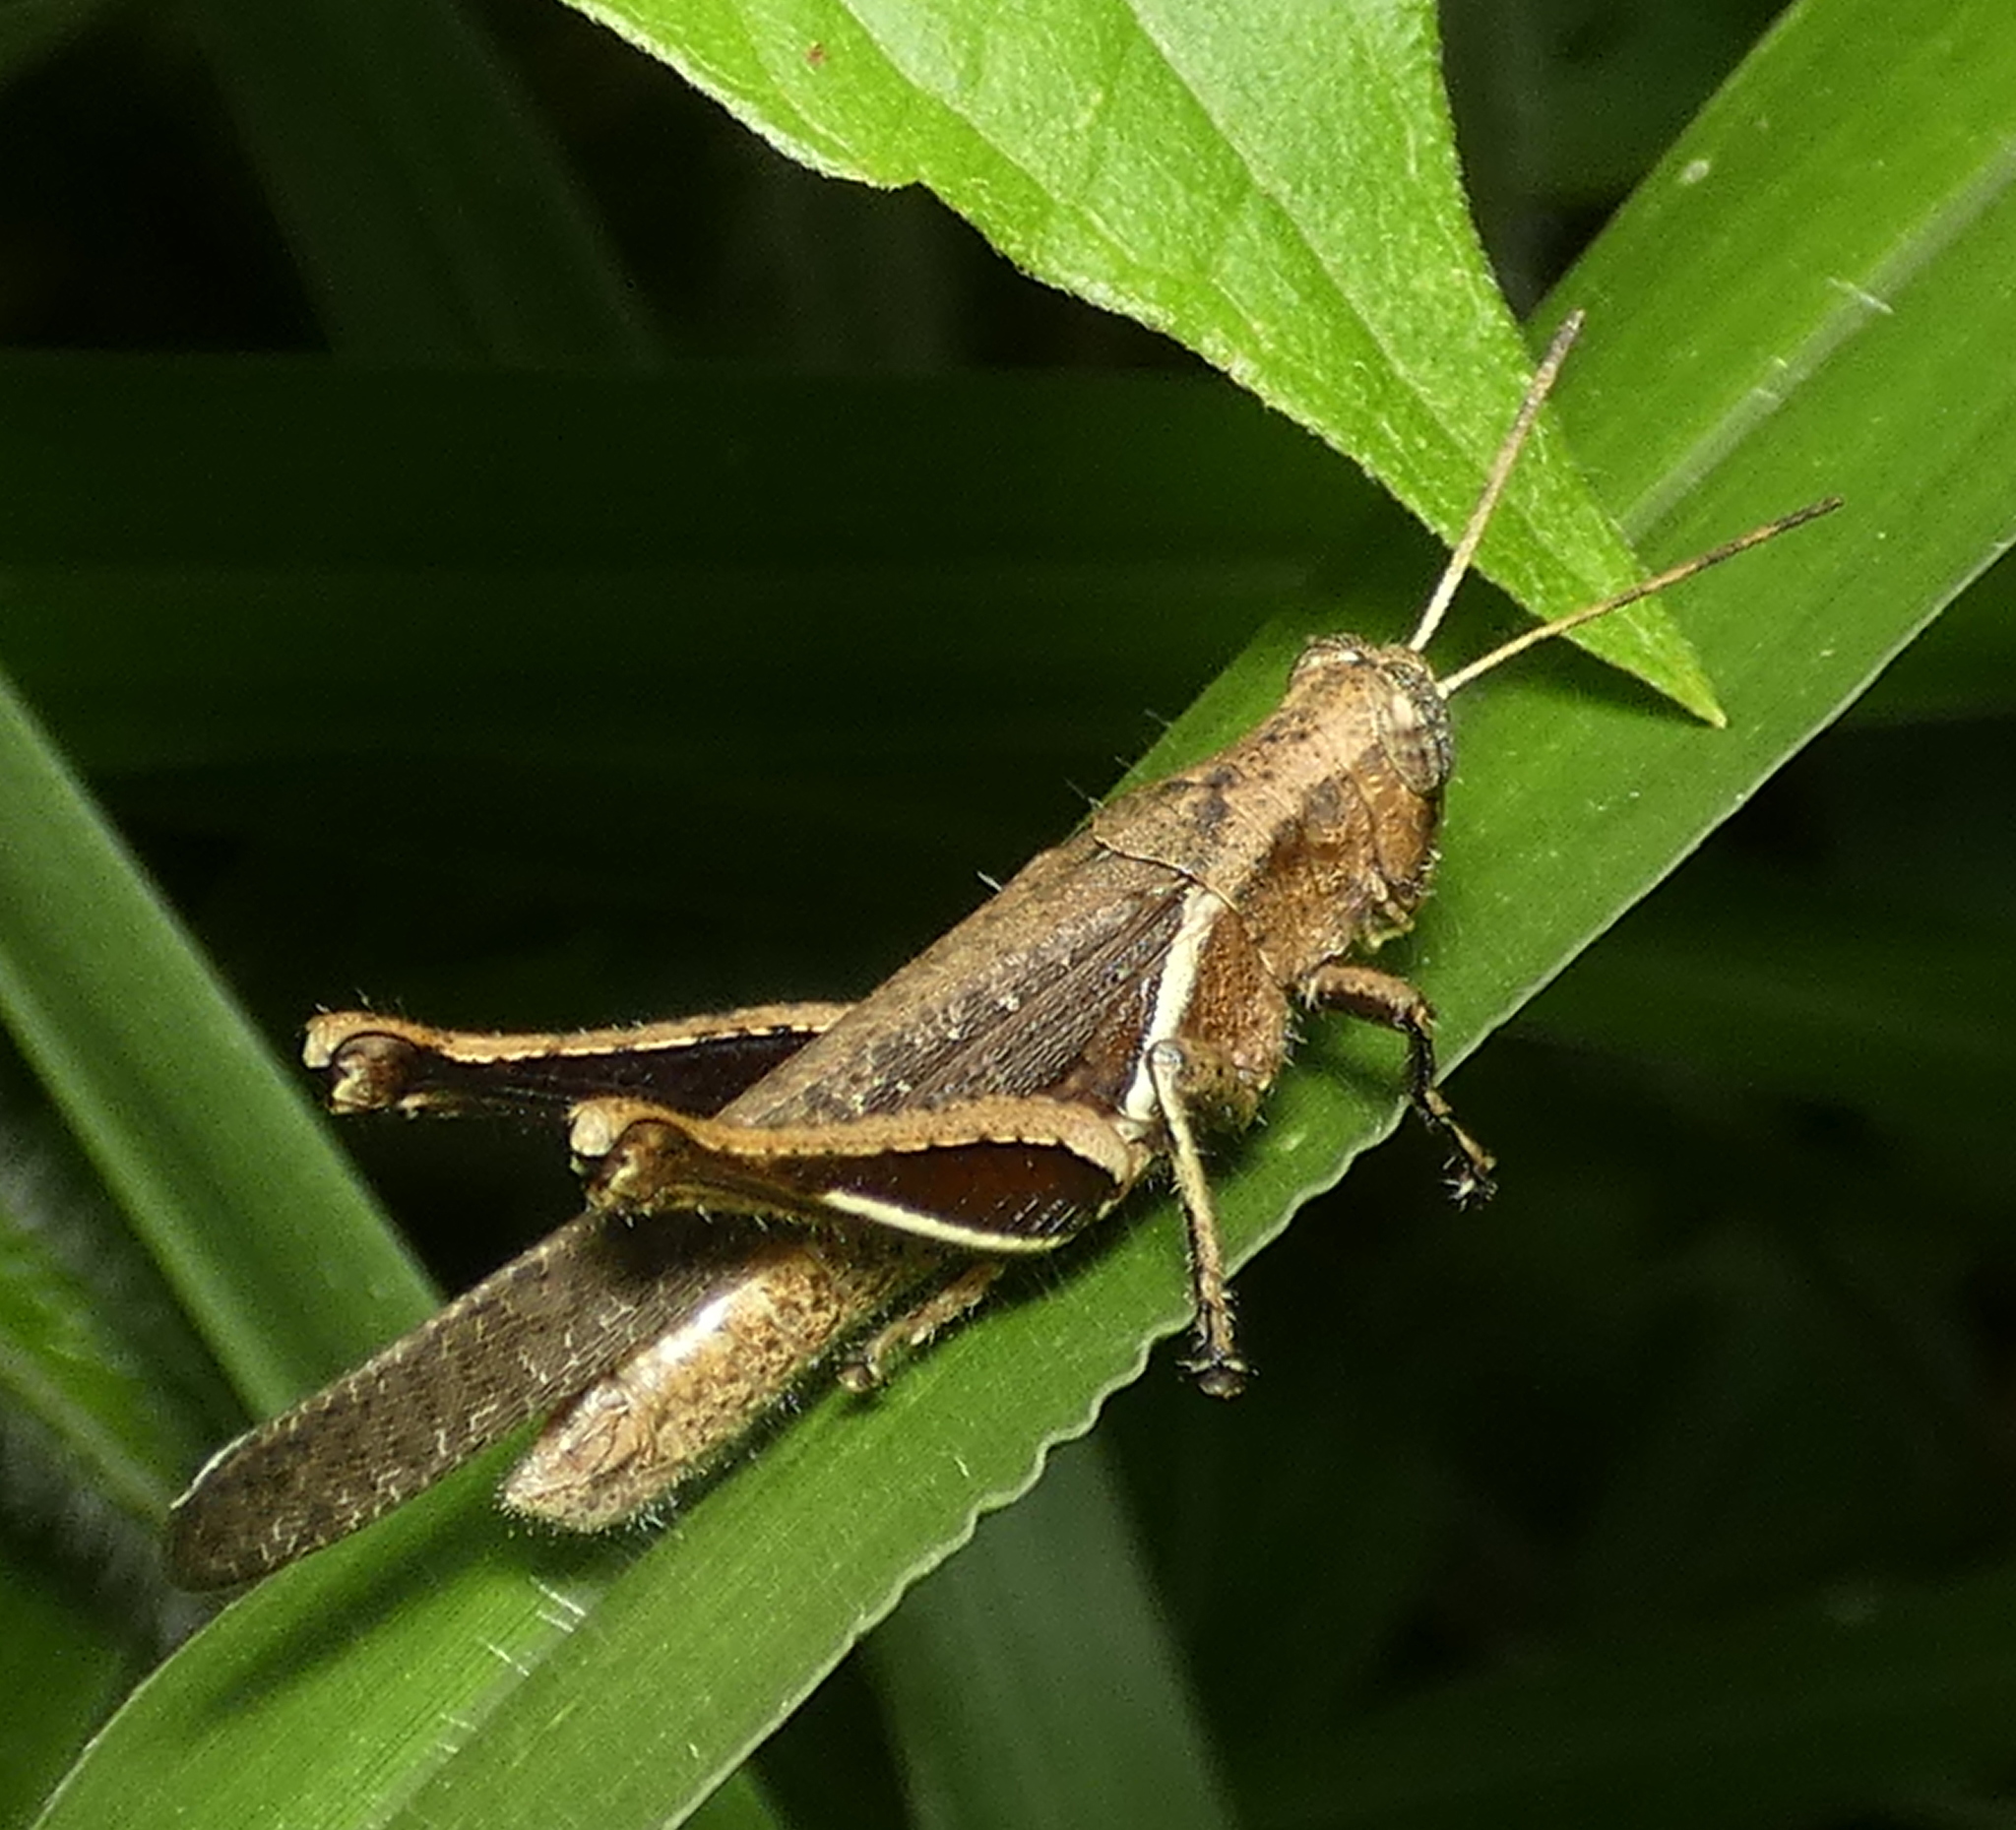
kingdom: Animalia
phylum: Arthropoda
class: Insecta
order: Orthoptera
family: Acrididae
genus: Abracris
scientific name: Abracris flavolineata
